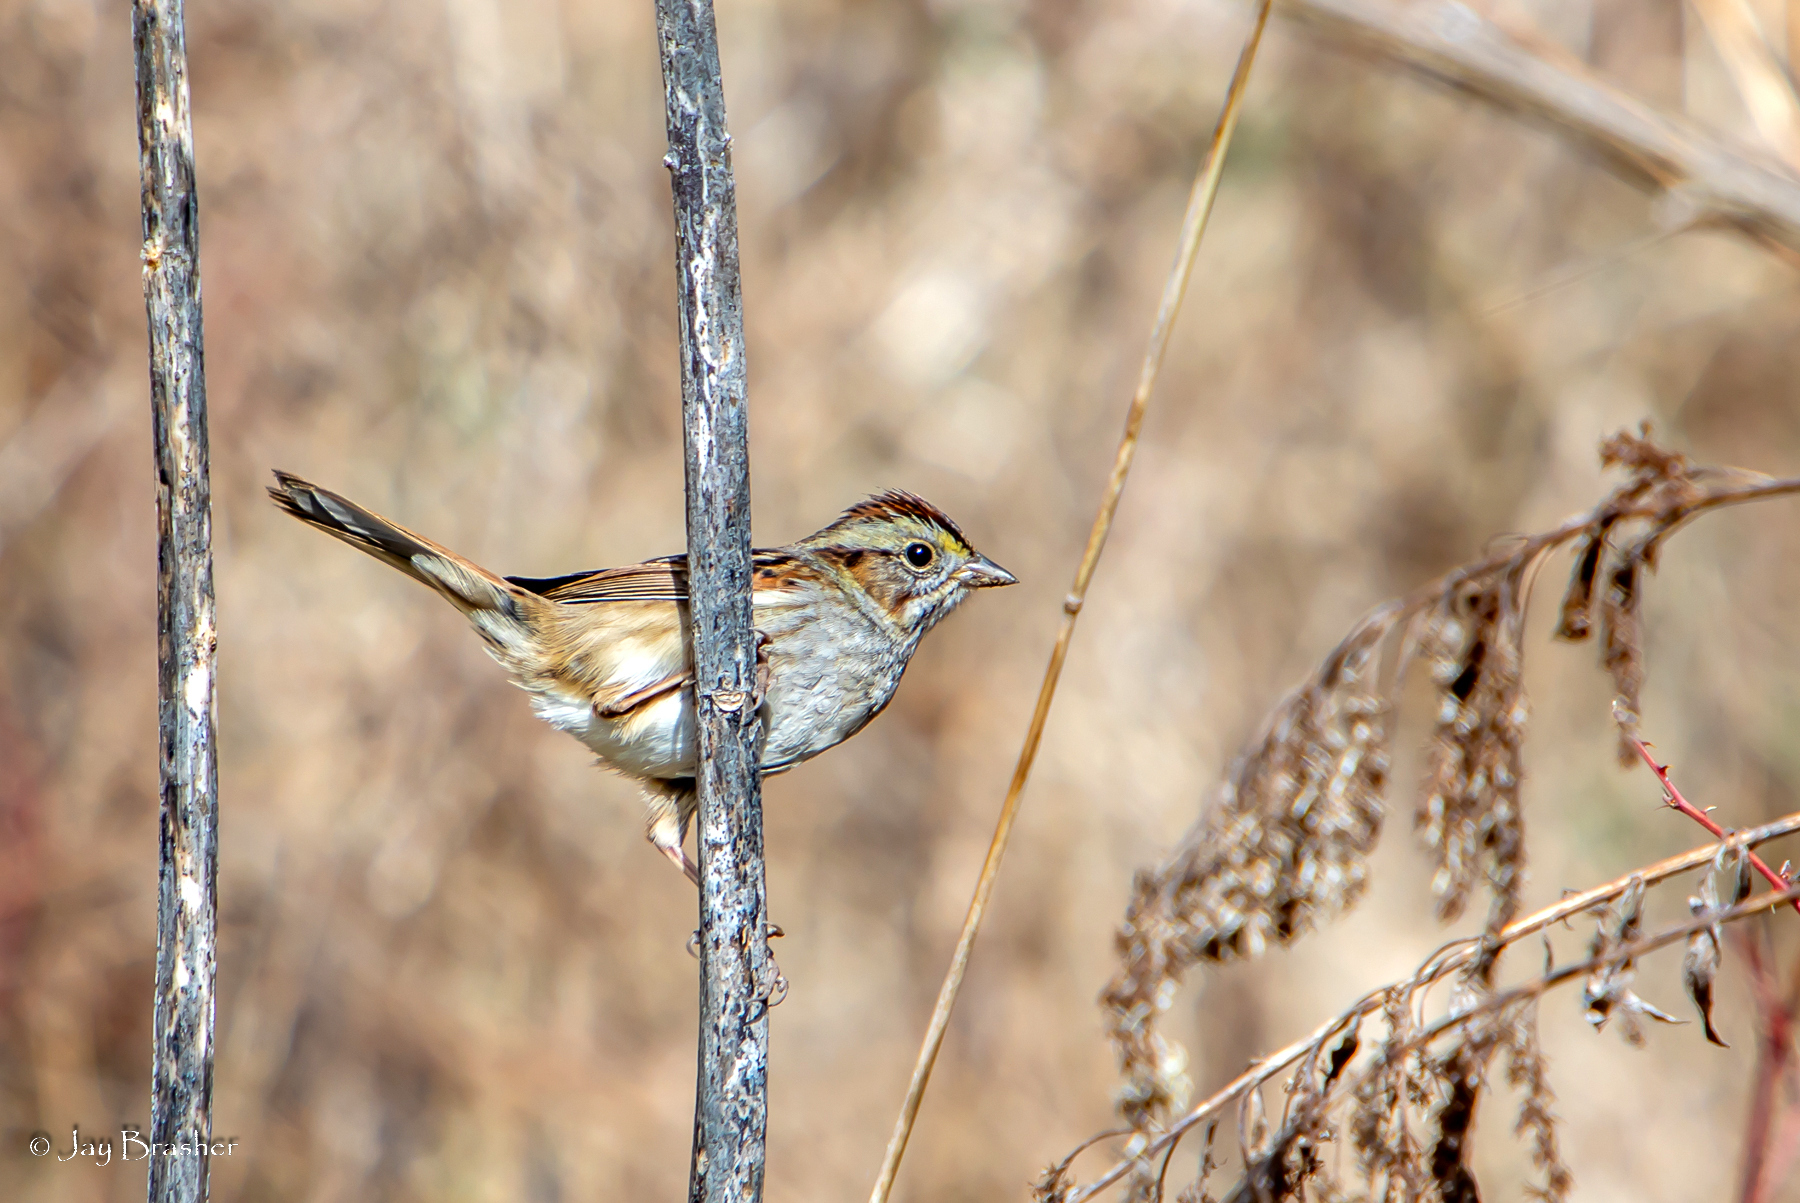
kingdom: Animalia
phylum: Chordata
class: Aves
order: Passeriformes
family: Passerellidae
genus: Melospiza
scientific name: Melospiza georgiana
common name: Swamp sparrow
